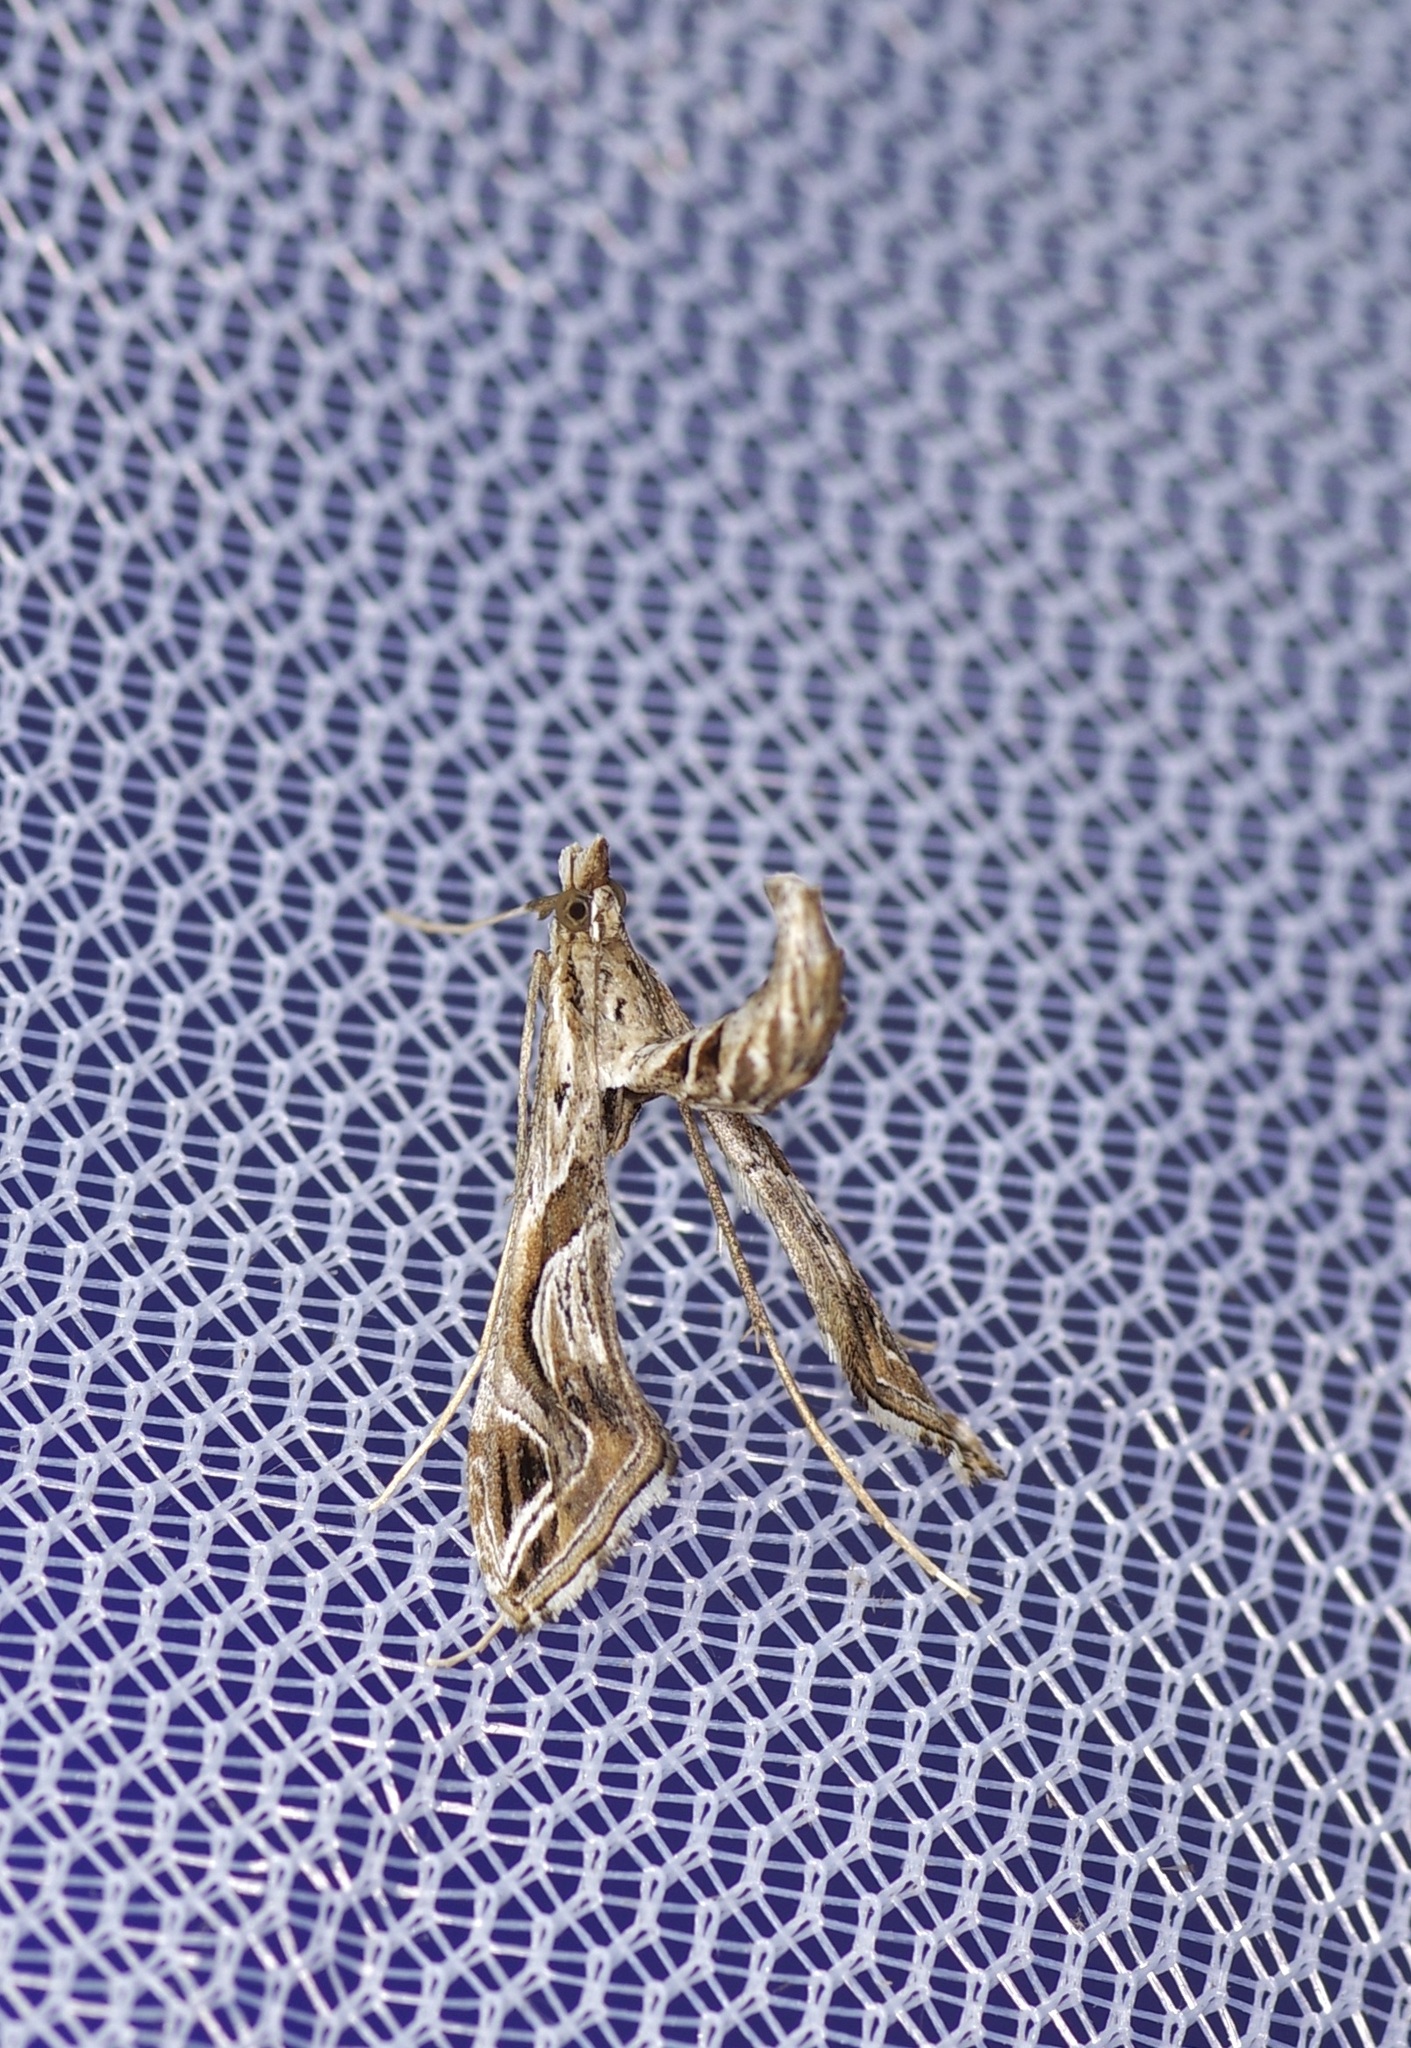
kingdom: Animalia
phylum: Arthropoda
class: Insecta
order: Lepidoptera
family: Crambidae
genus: Lineodes
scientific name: Lineodes integra
